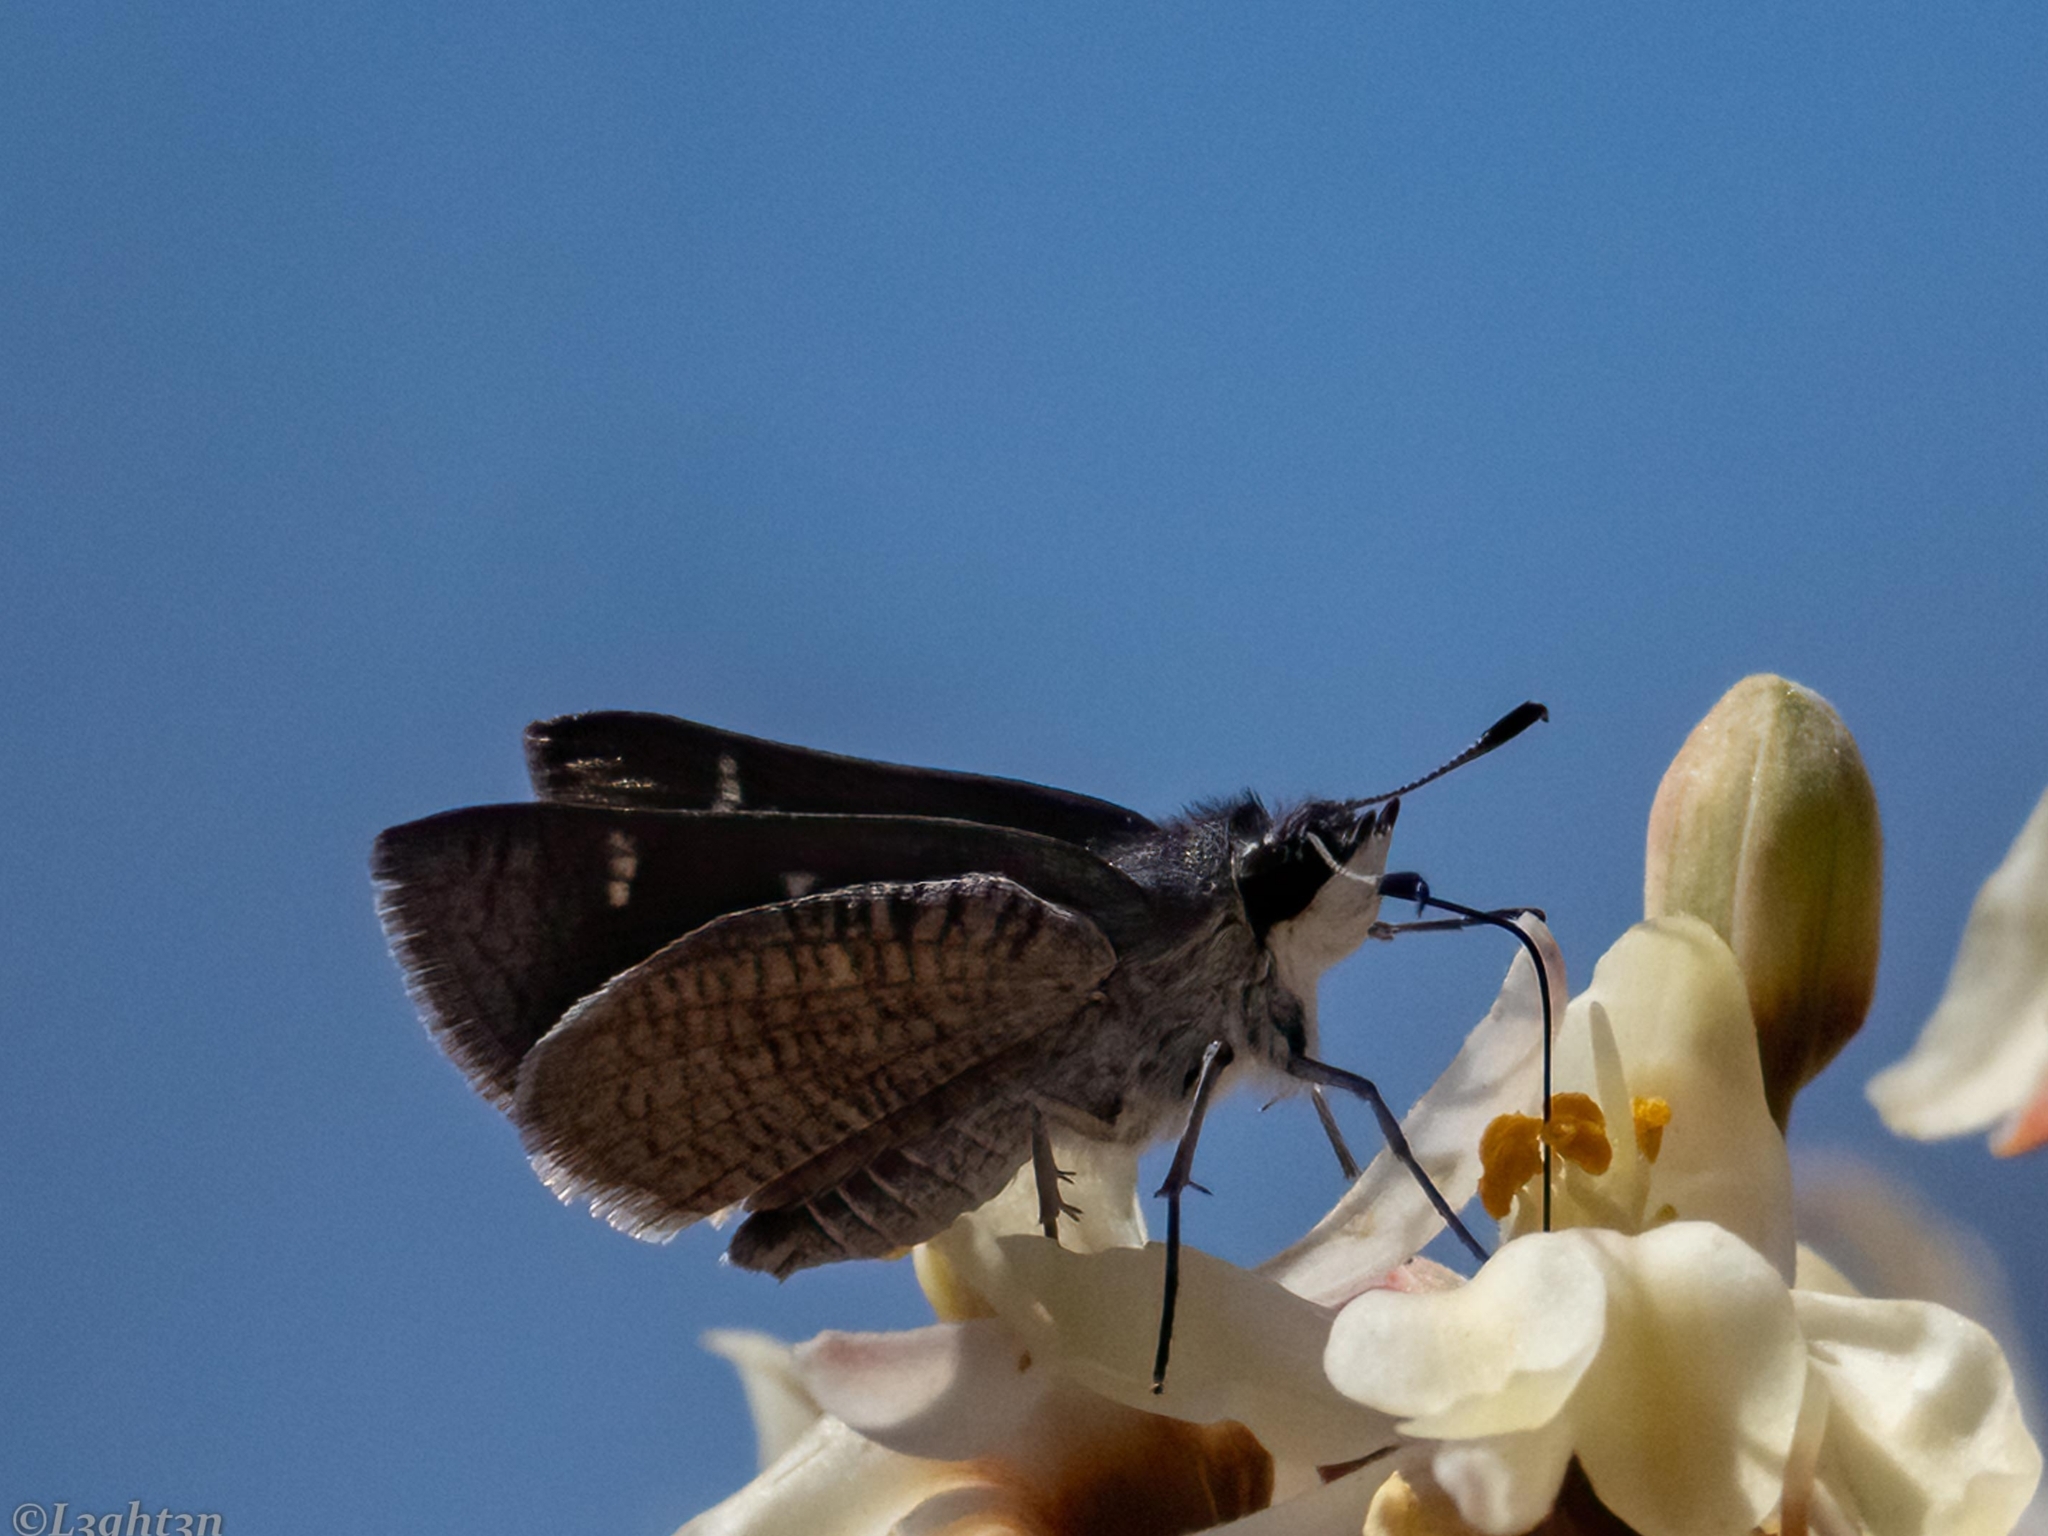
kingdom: Animalia
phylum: Arthropoda
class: Insecta
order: Lepidoptera
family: Hesperiidae
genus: Platylesches
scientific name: Platylesches ayresii
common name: Peppered hopper
